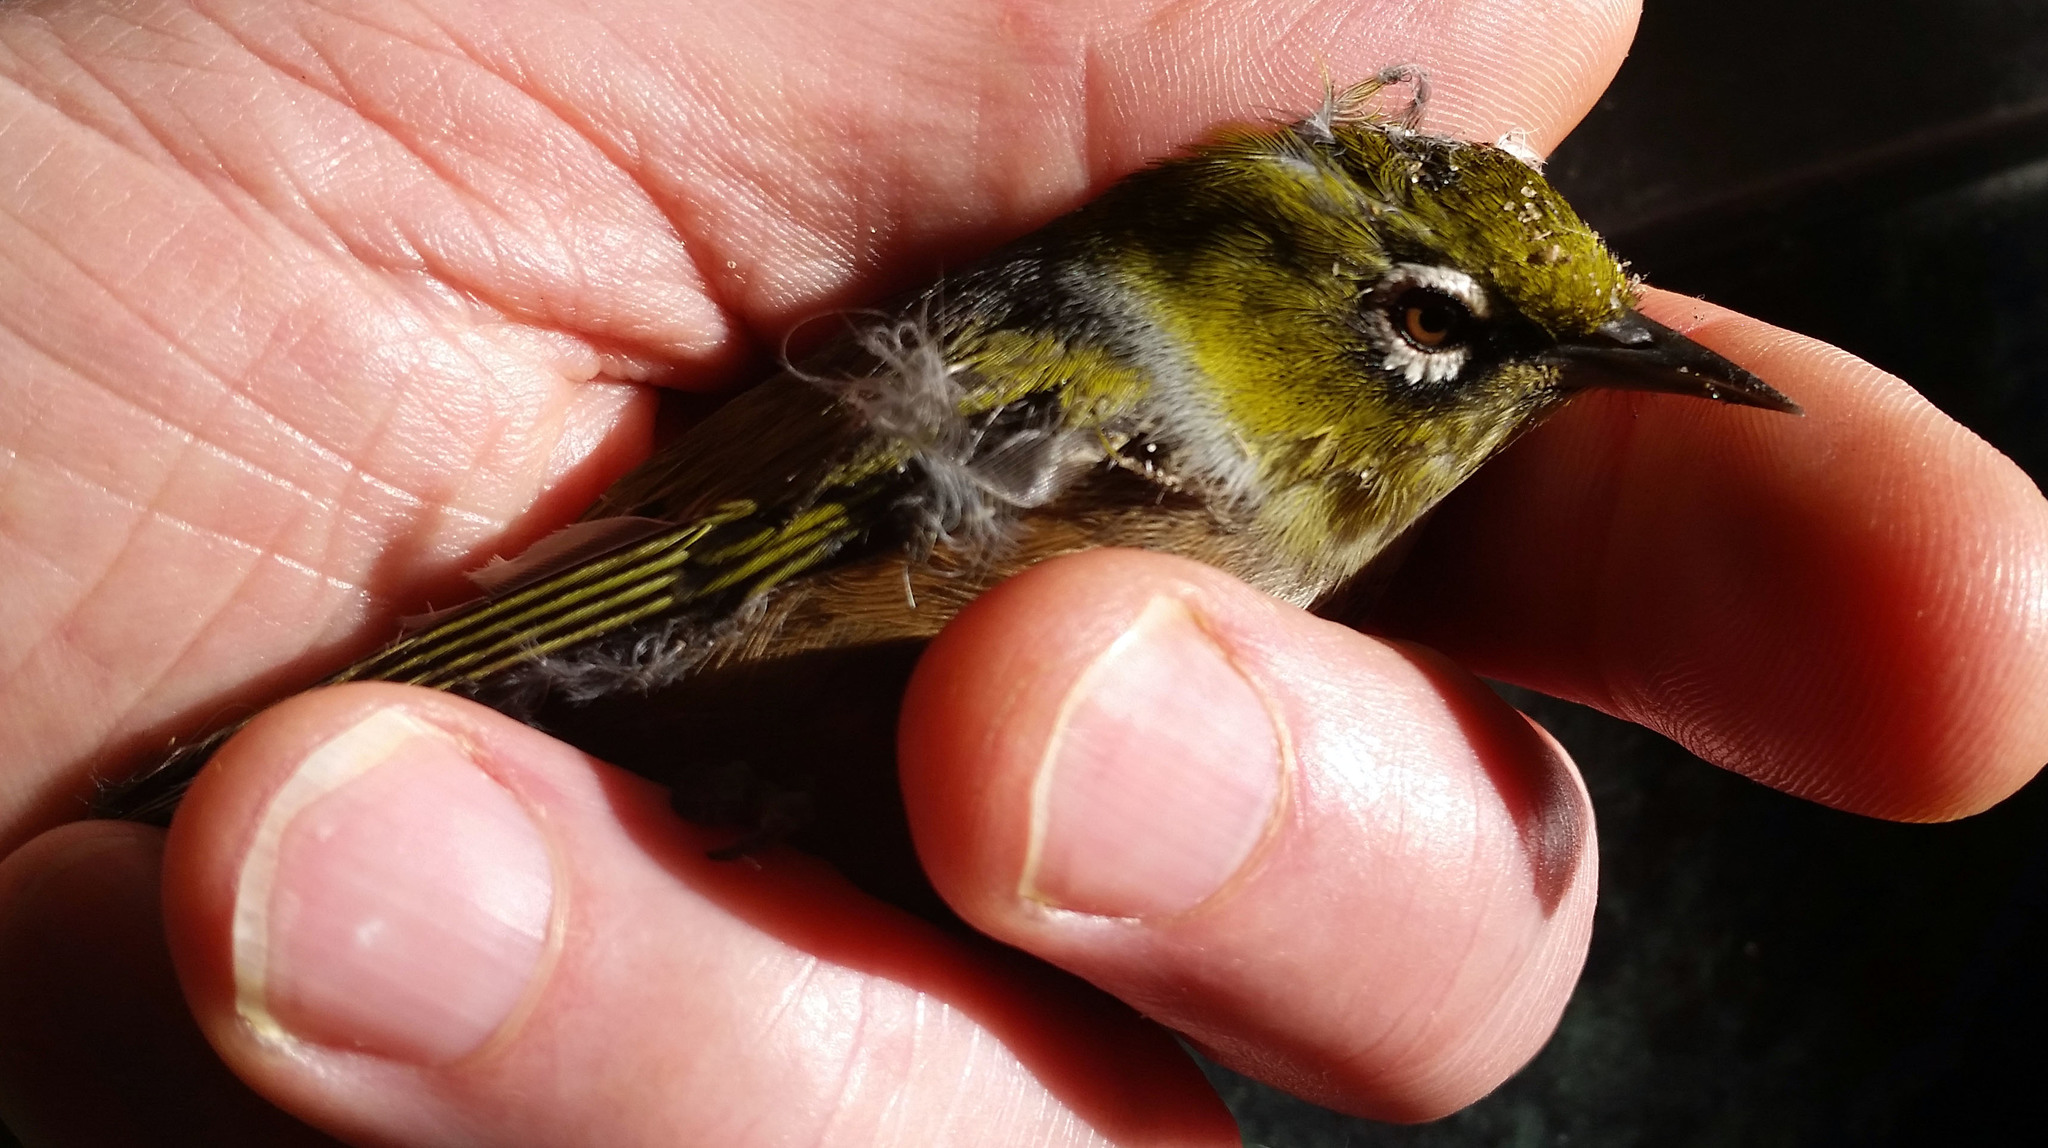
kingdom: Animalia
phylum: Chordata
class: Aves
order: Passeriformes
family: Zosteropidae
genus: Zosterops
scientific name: Zosterops lateralis
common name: Silvereye
